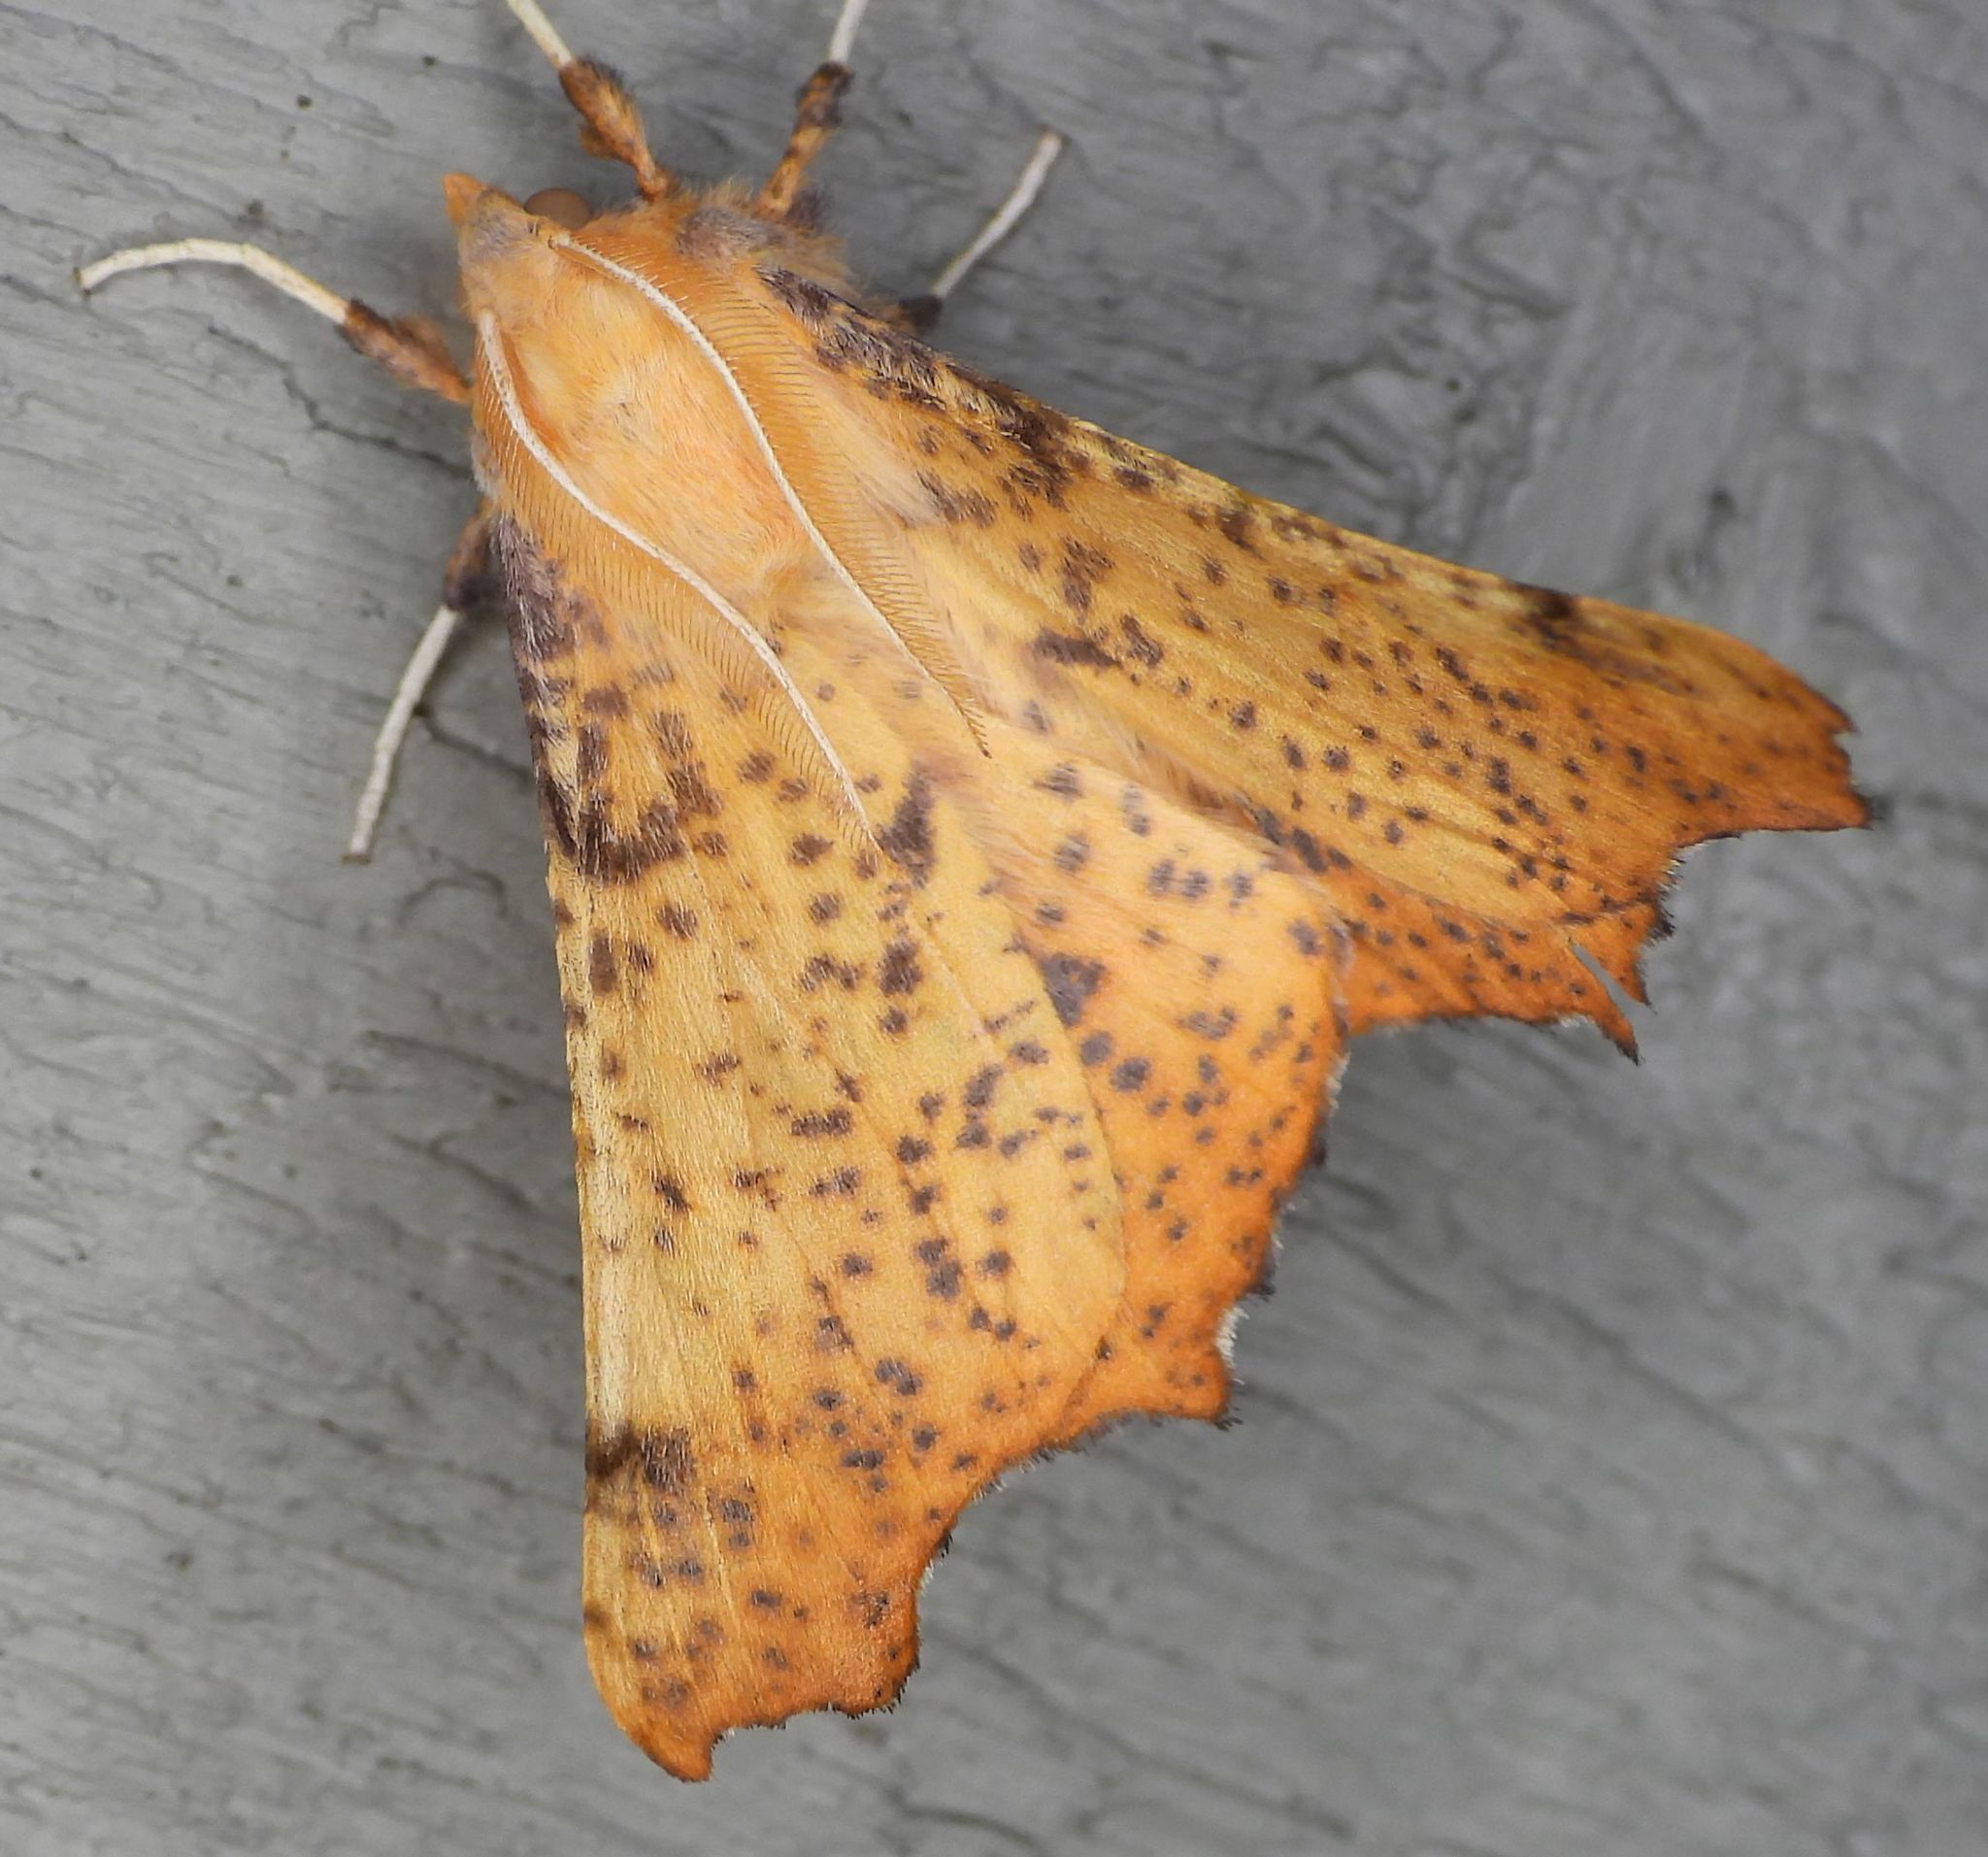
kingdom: Animalia
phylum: Arthropoda
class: Insecta
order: Lepidoptera
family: Geometridae
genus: Ennomos
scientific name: Ennomos magnaria
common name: Maple spanworm
